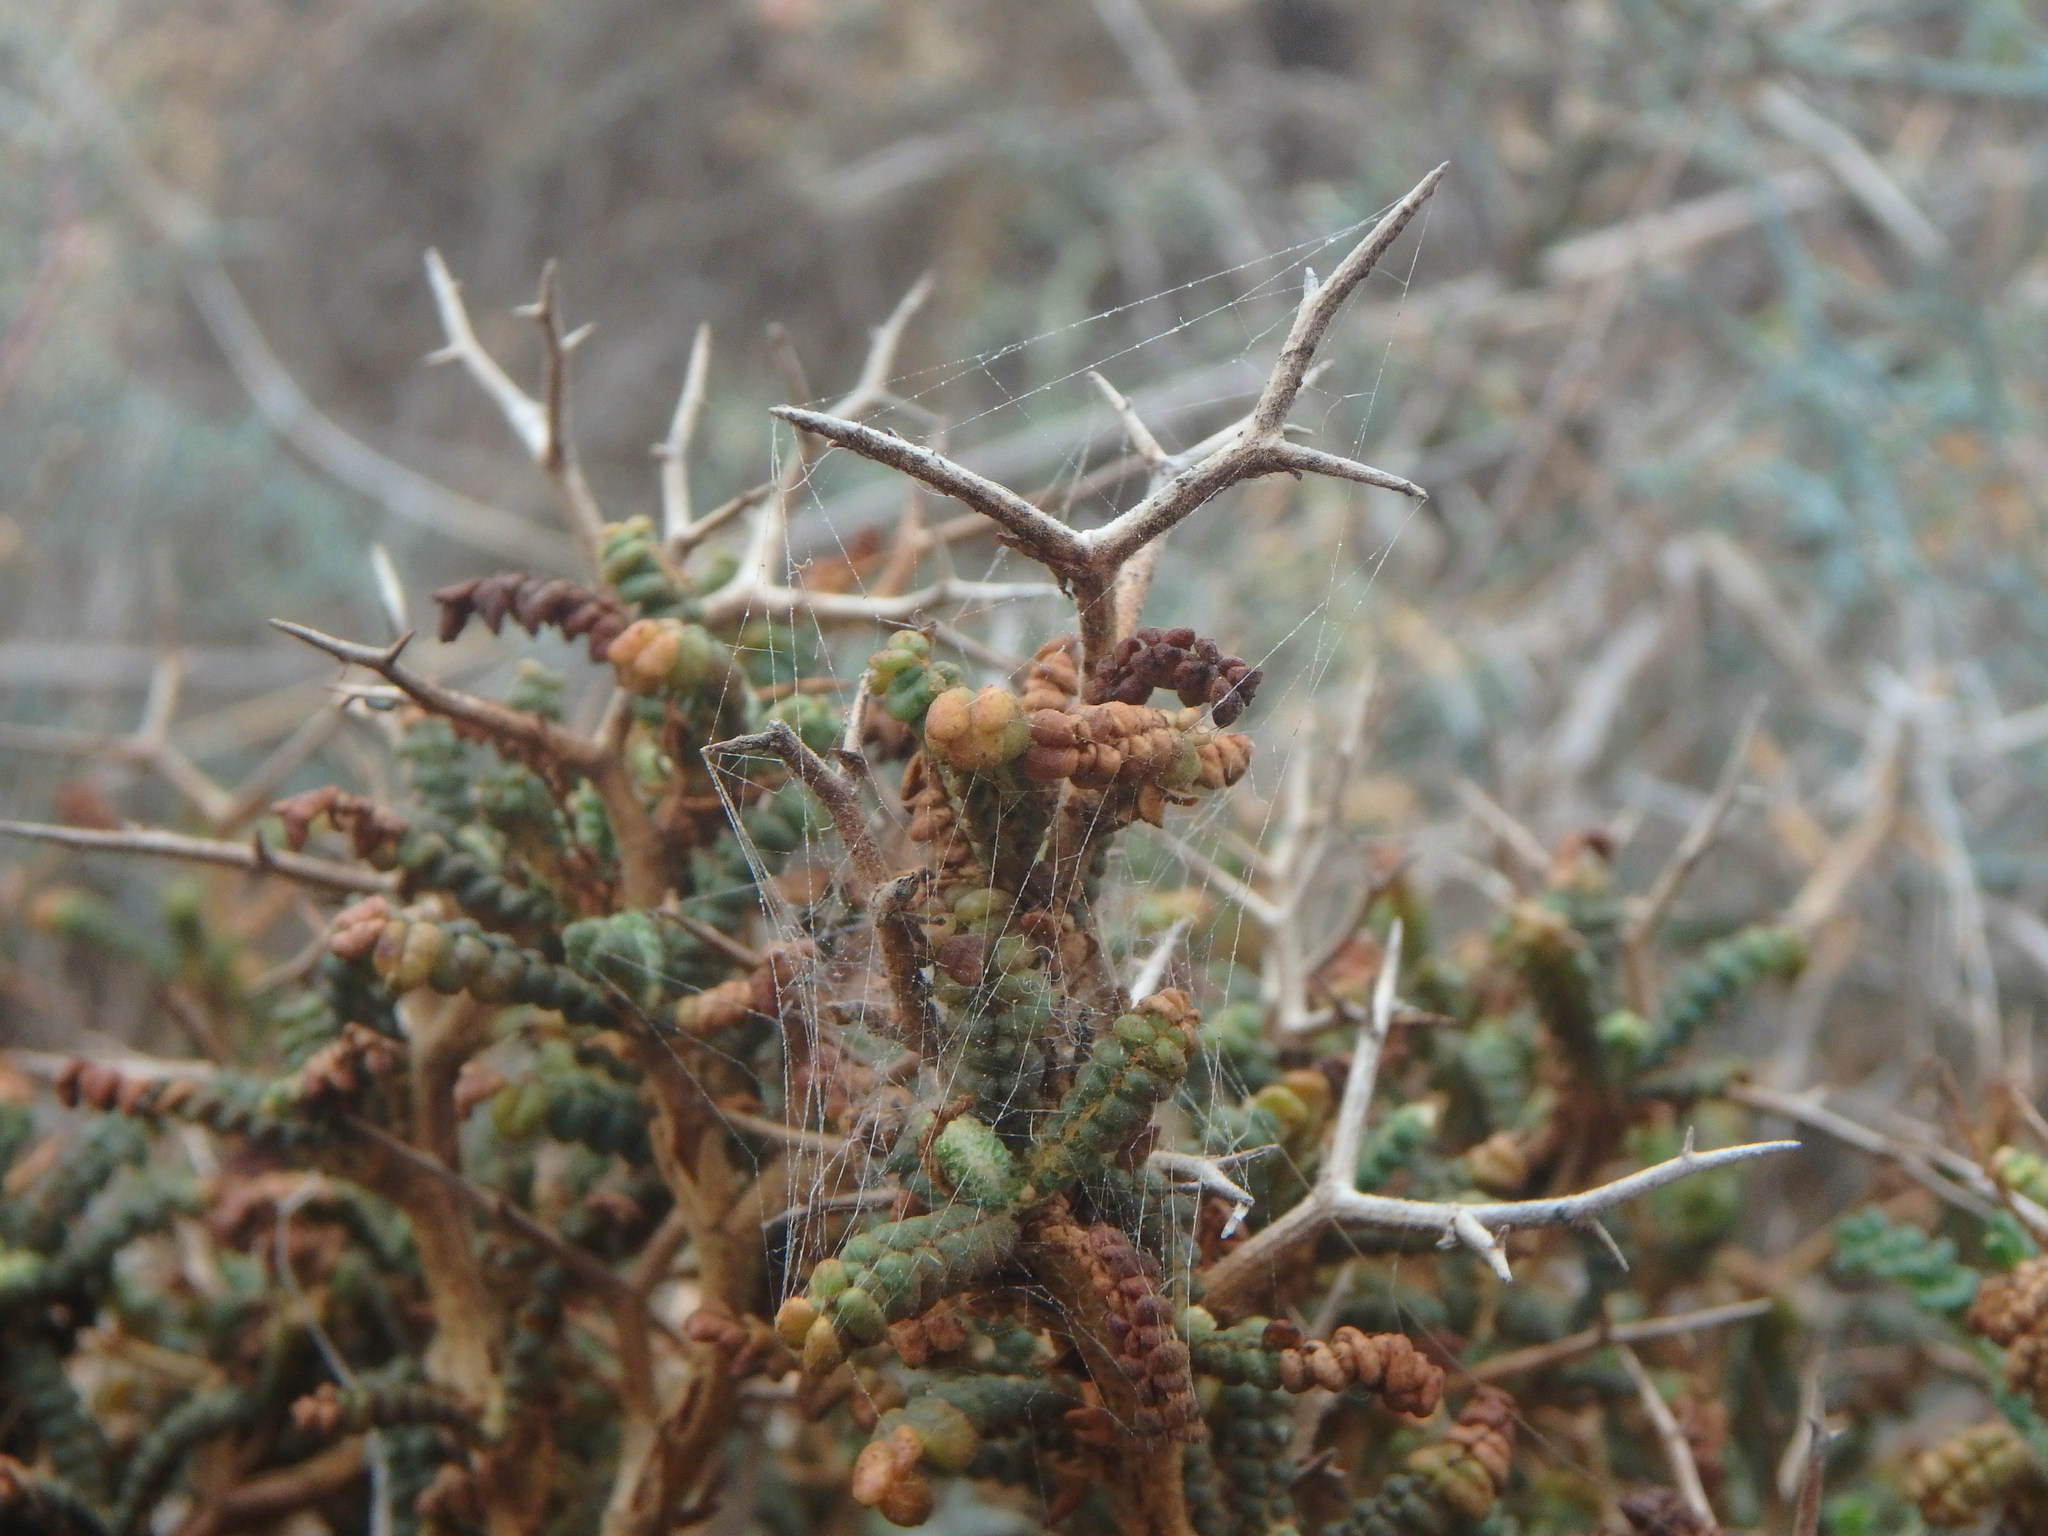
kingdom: Plantae
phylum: Tracheophyta
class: Magnoliopsida
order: Rosales
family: Rosaceae
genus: Sarcopoterium
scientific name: Sarcopoterium spinosum
